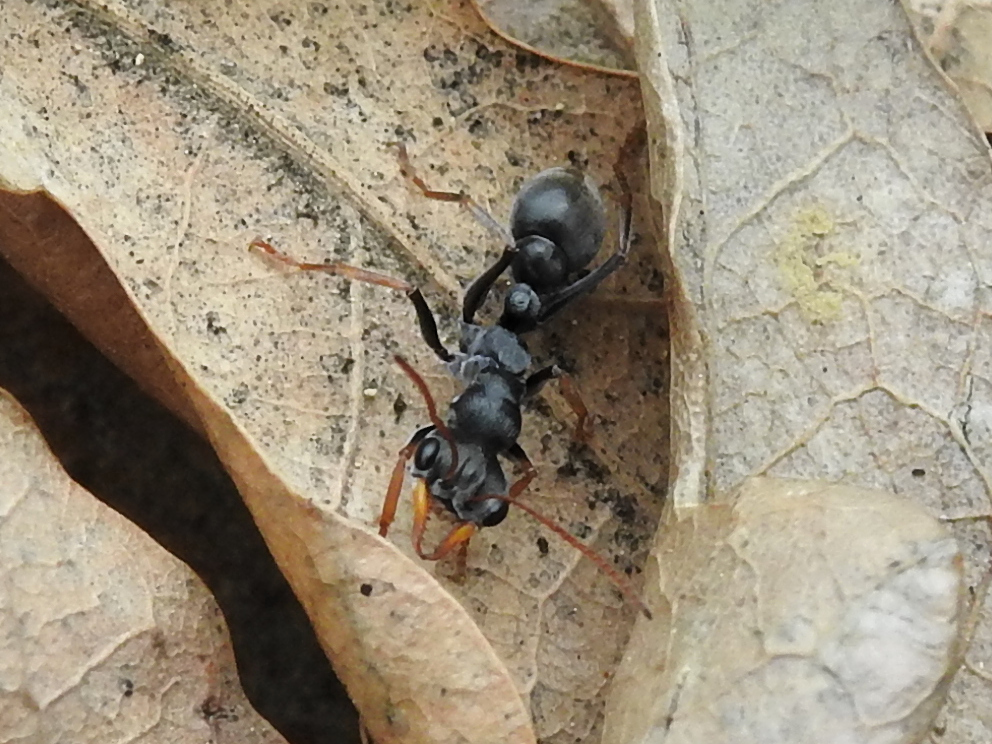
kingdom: Animalia
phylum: Arthropoda
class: Insecta
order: Hymenoptera
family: Formicidae
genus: Myrmecia
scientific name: Myrmecia pilosula
